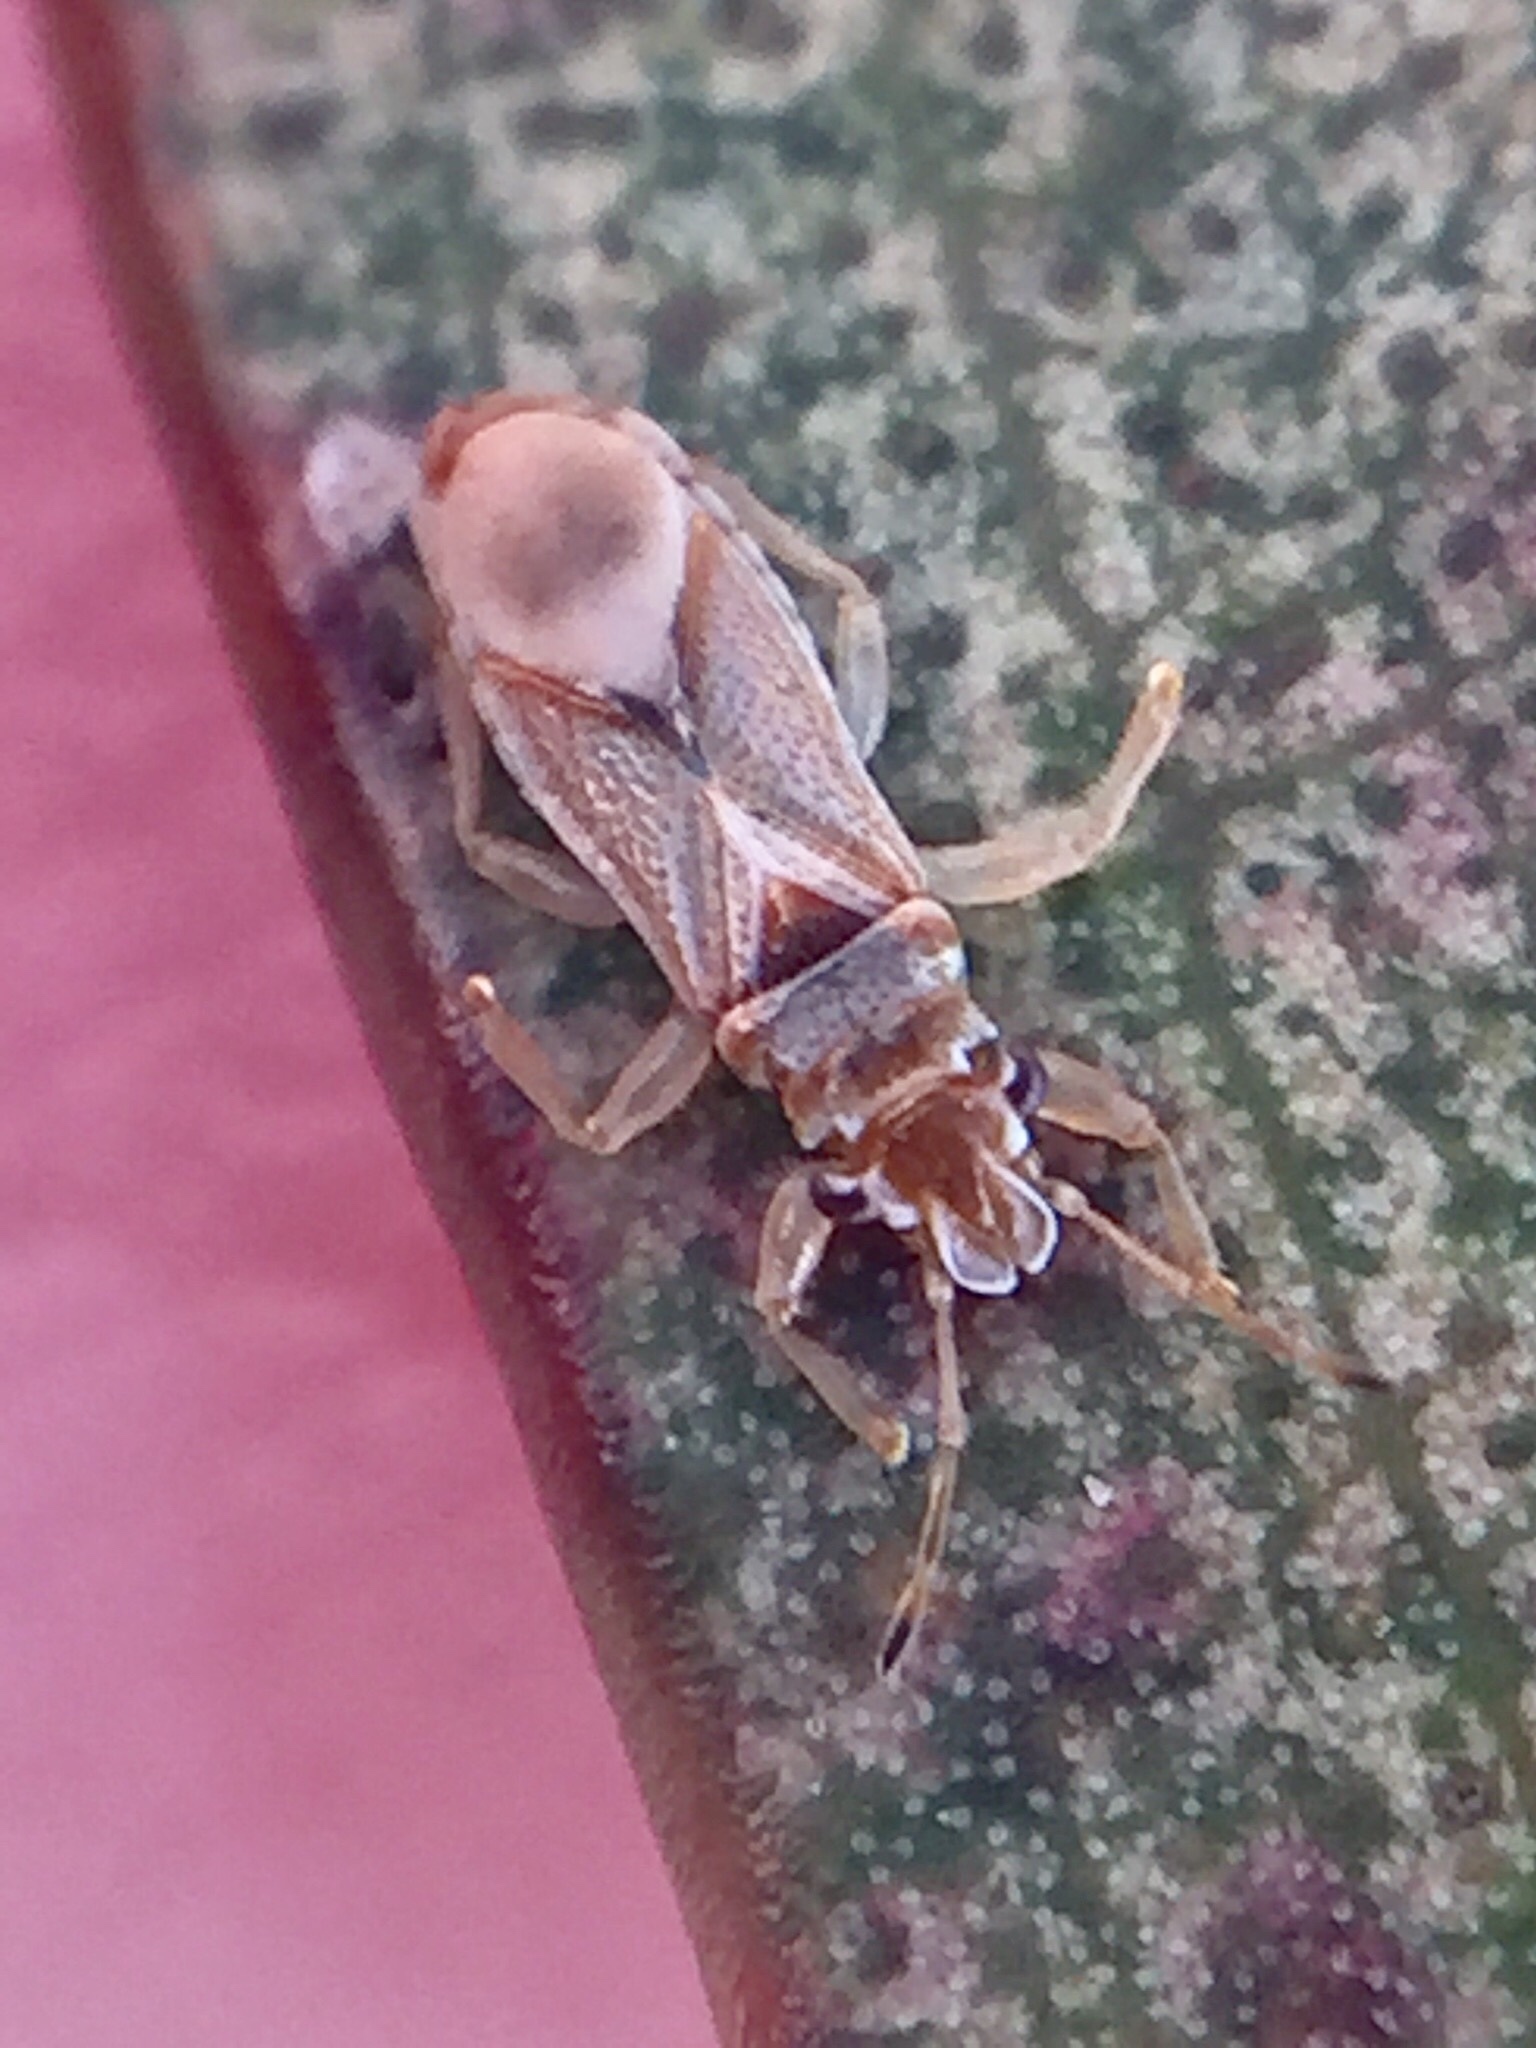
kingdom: Animalia
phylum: Arthropoda
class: Insecta
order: Hemiptera
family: Thaumastocoridae
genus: Thaumastocoris
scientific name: Thaumastocoris peregrinus
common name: Bronze bug
